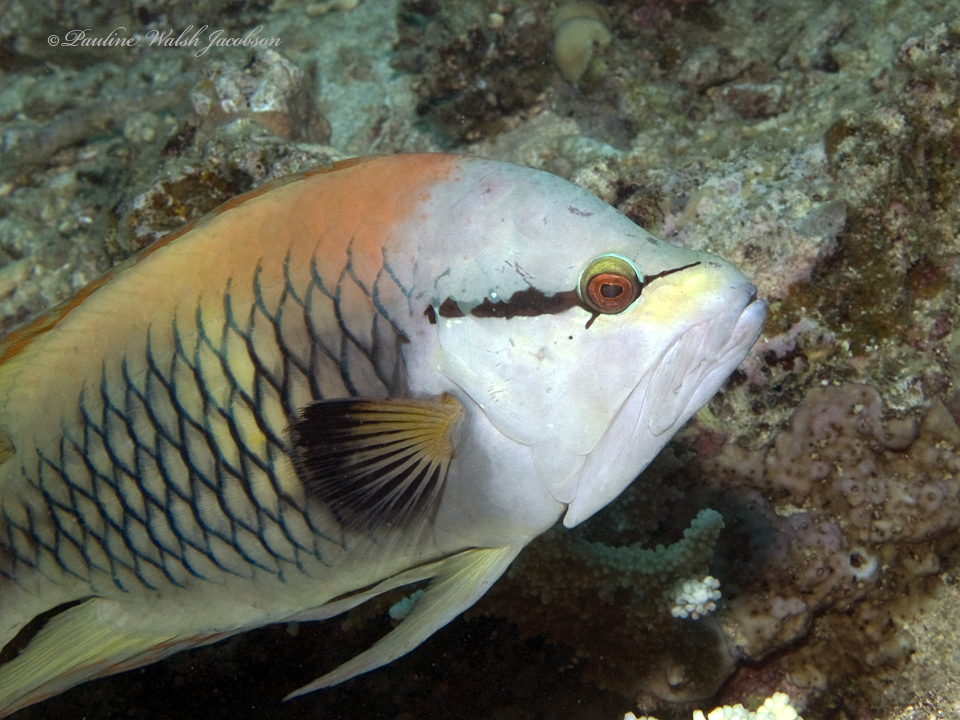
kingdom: Animalia
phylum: Chordata
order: Perciformes
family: Labridae
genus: Epibulus
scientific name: Epibulus insidiator
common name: Slingjaw wrasse
